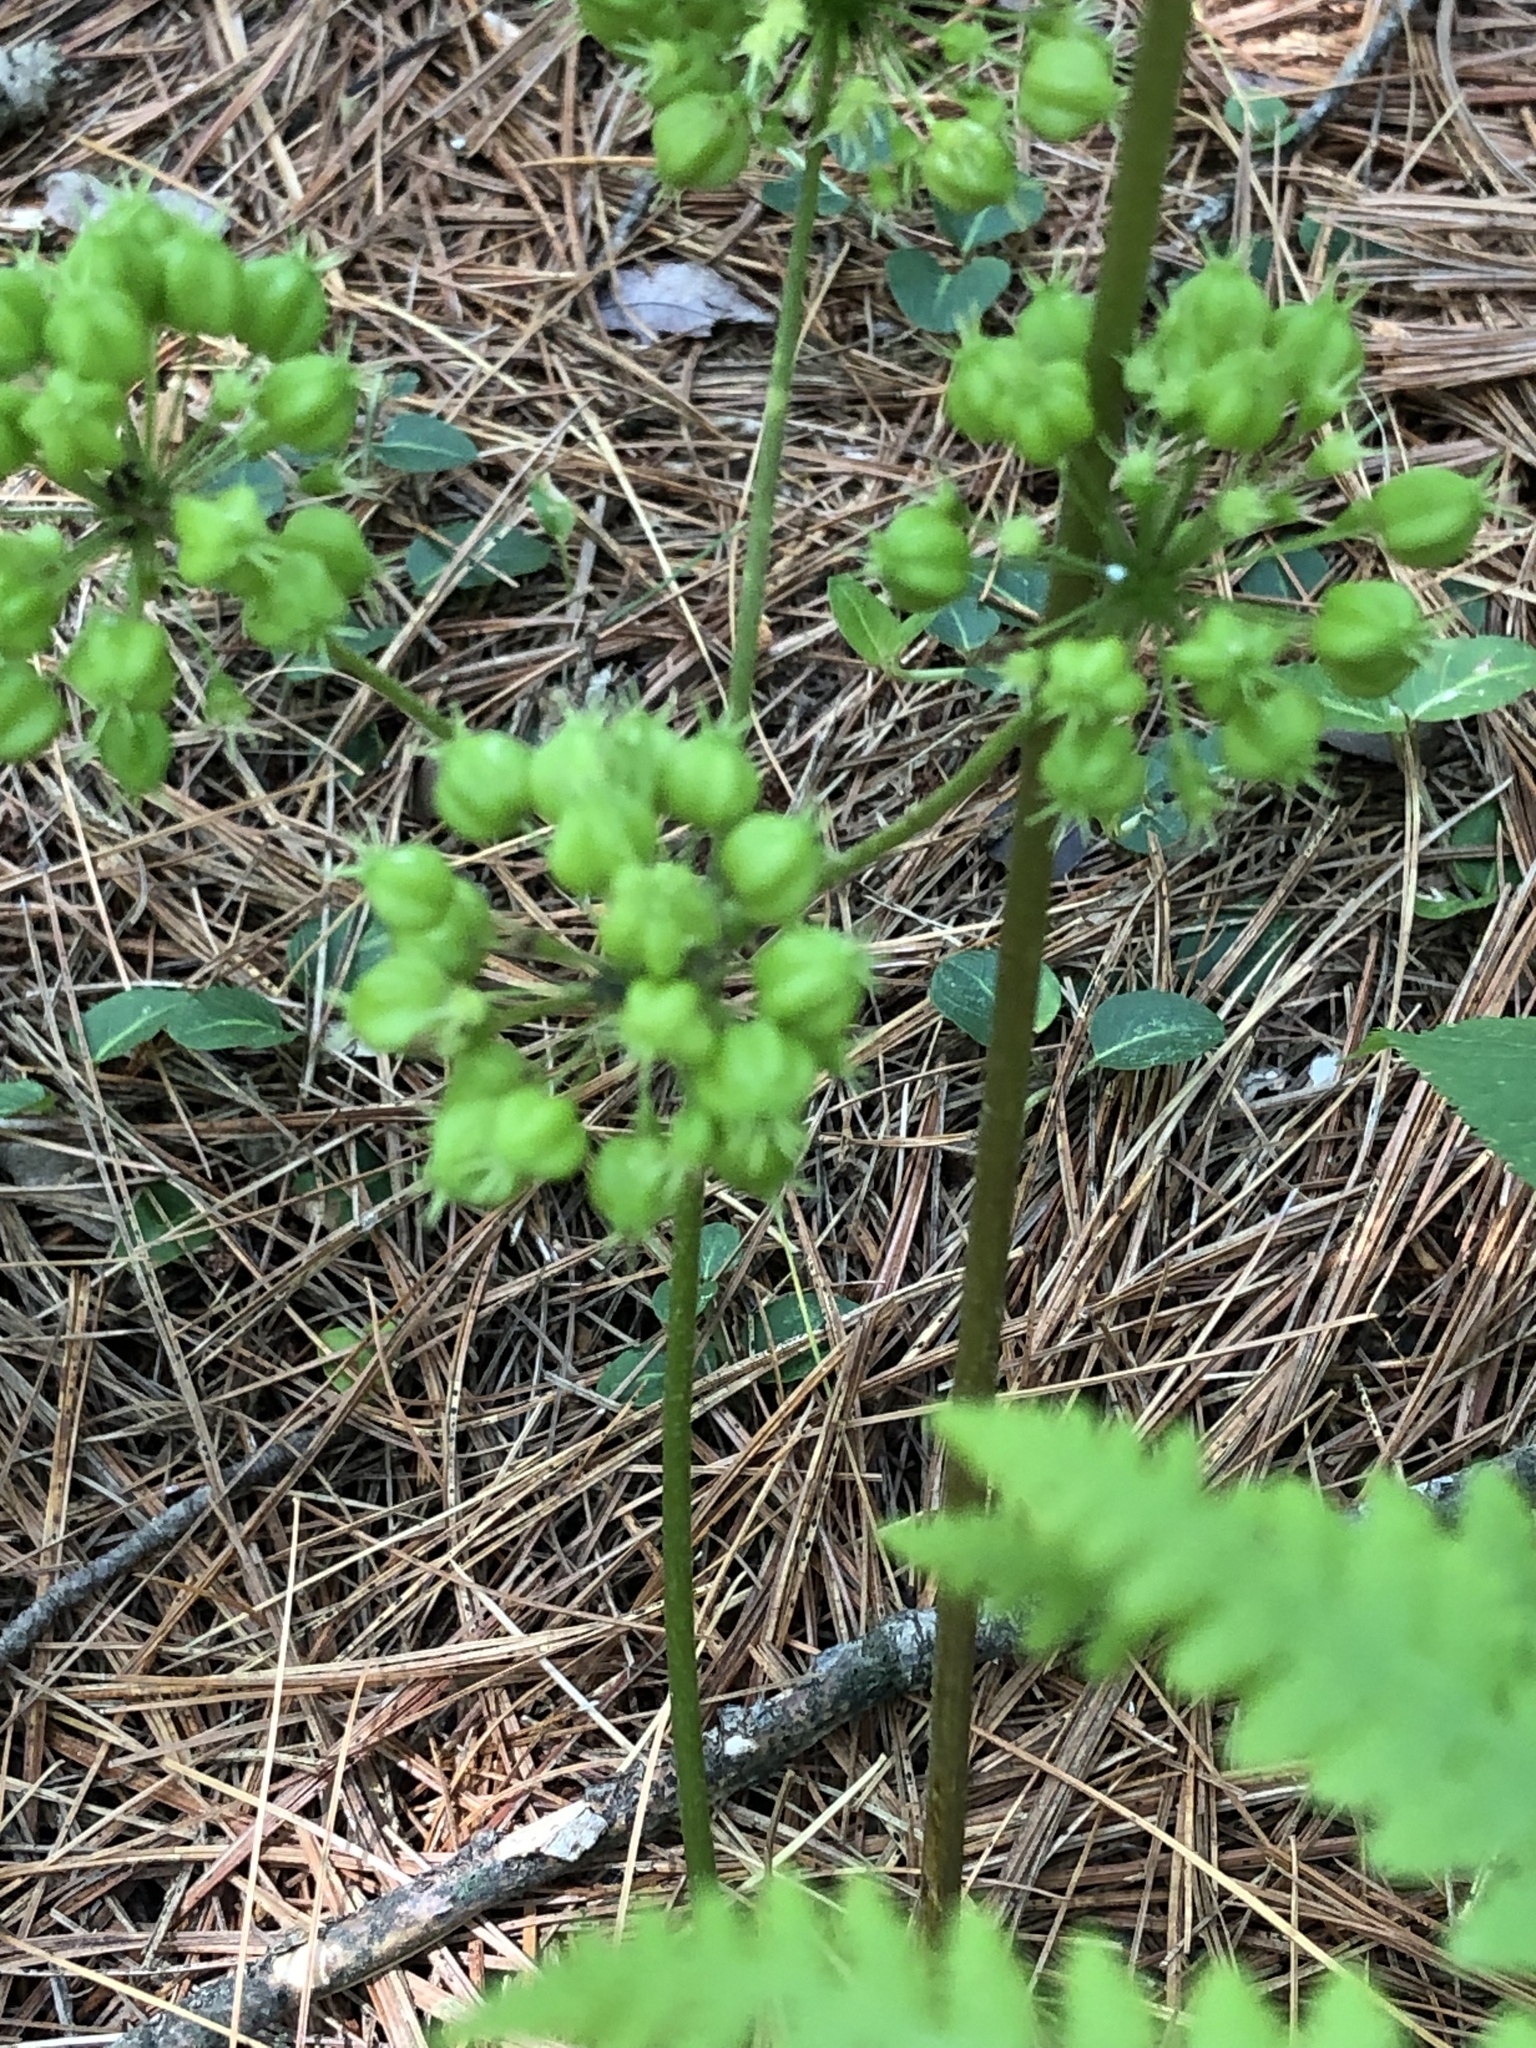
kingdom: Plantae
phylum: Tracheophyta
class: Magnoliopsida
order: Apiales
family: Araliaceae
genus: Aralia
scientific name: Aralia nudicaulis
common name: Wild sarsaparilla
